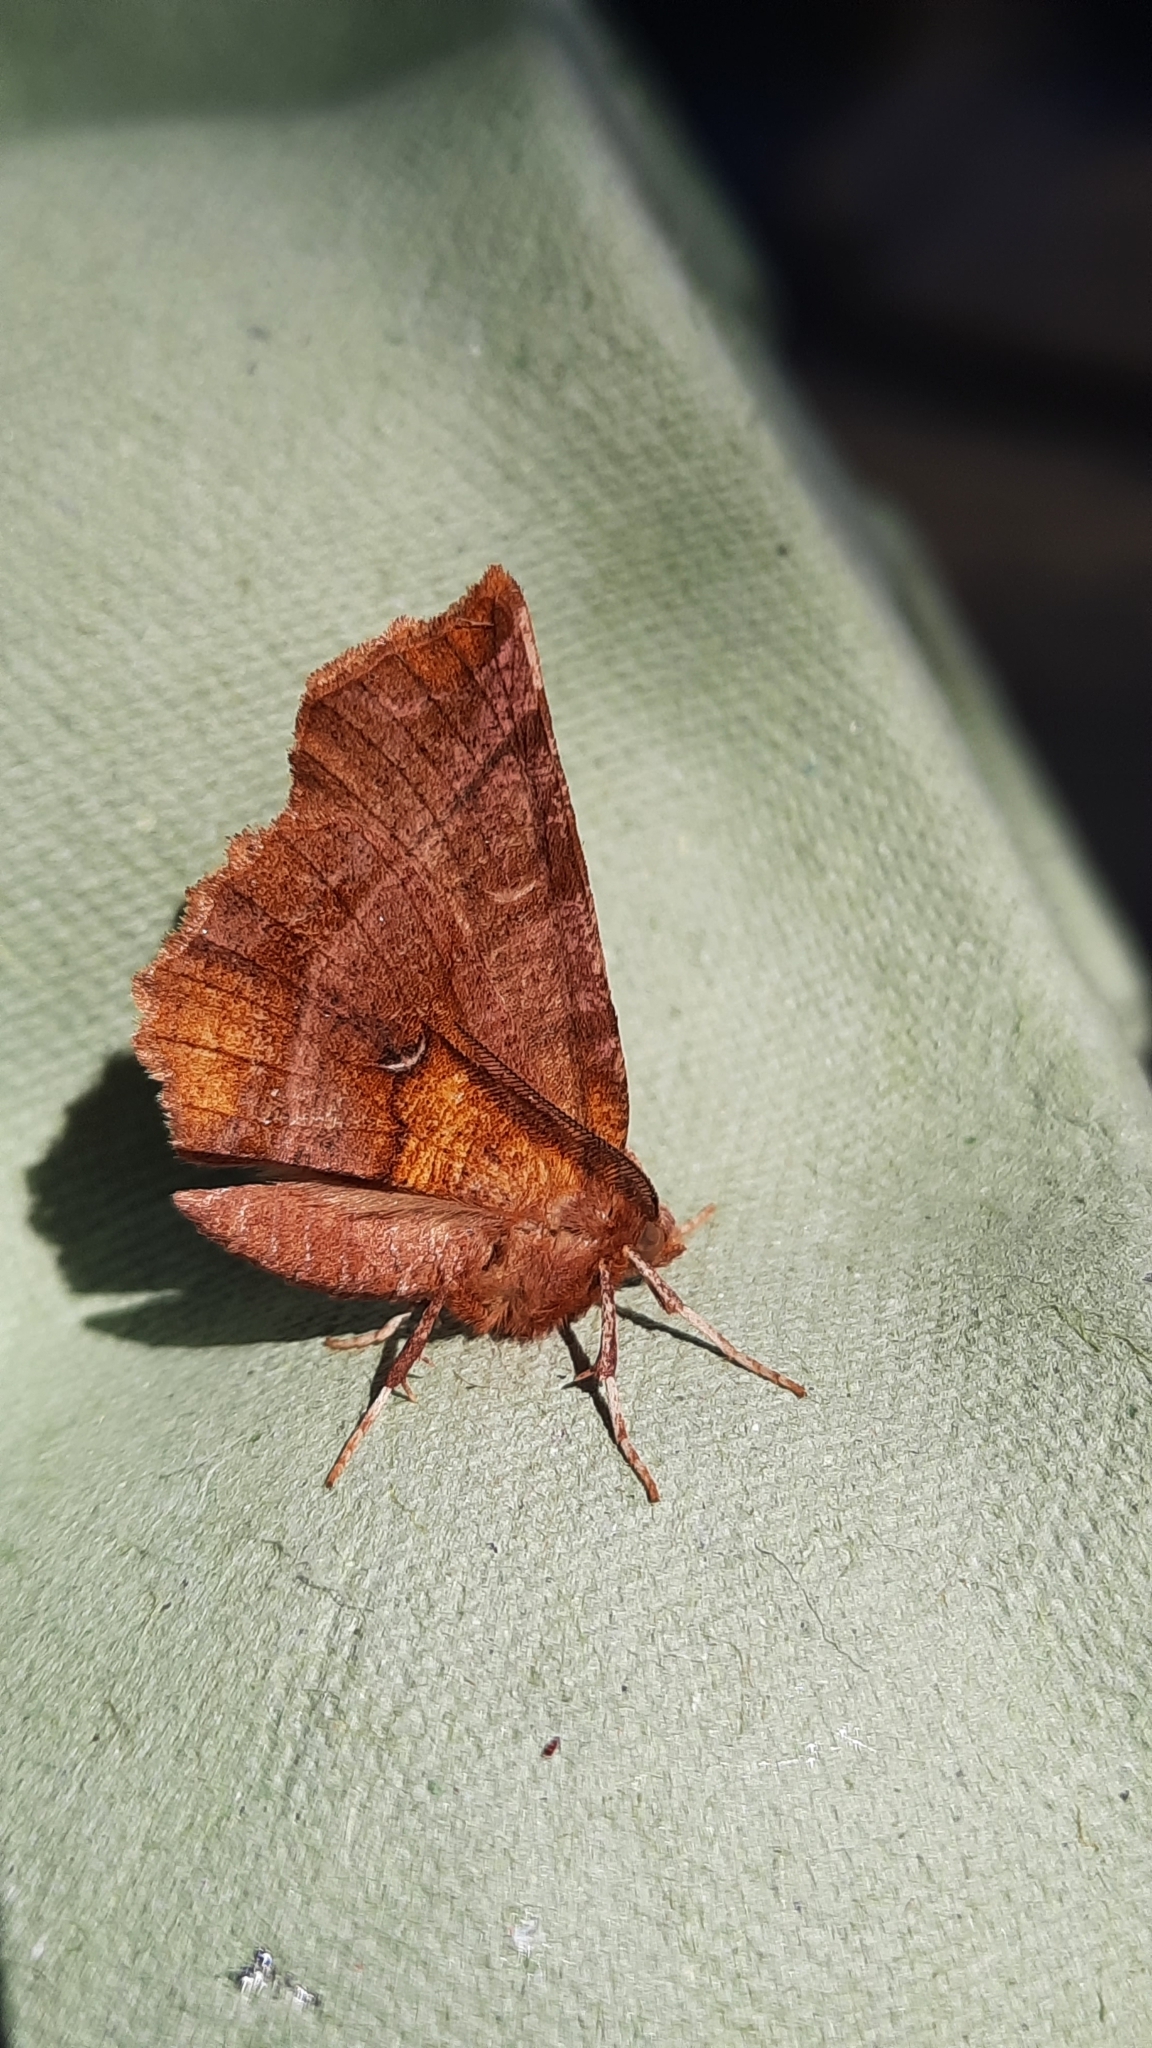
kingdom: Animalia
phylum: Arthropoda
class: Insecta
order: Lepidoptera
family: Geometridae
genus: Selenia
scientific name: Selenia dentaria
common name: Early thorn
